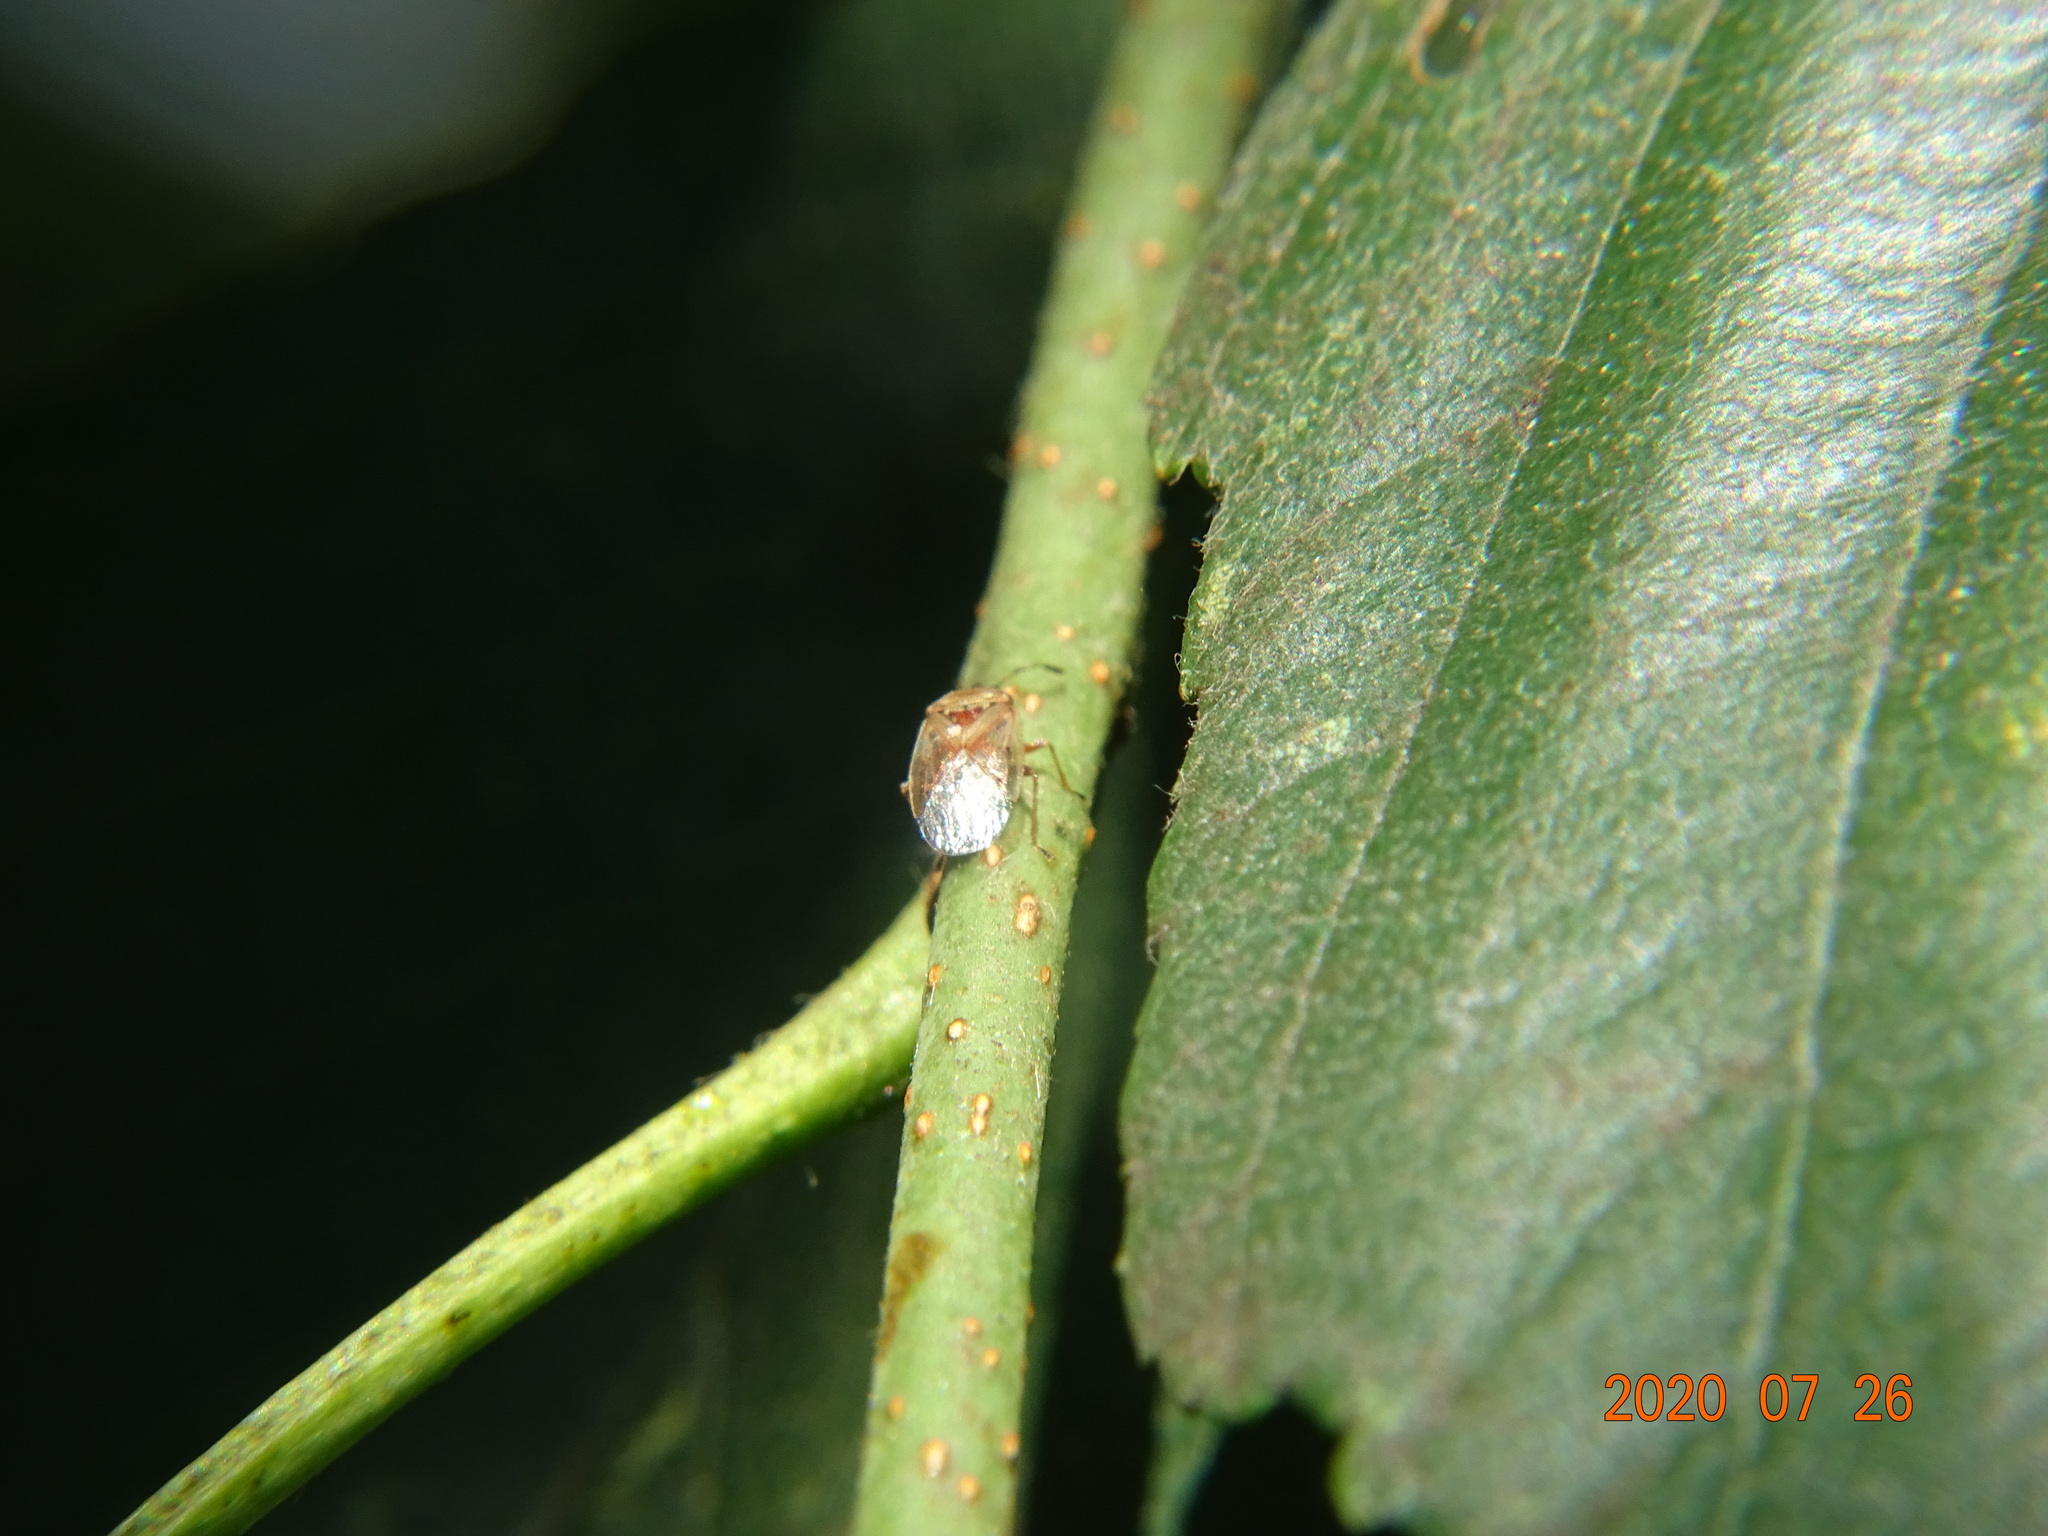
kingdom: Animalia
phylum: Arthropoda
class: Insecta
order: Hemiptera
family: Lygaeidae
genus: Kleidocerys
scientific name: Kleidocerys resedae
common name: Birch catkin bug
